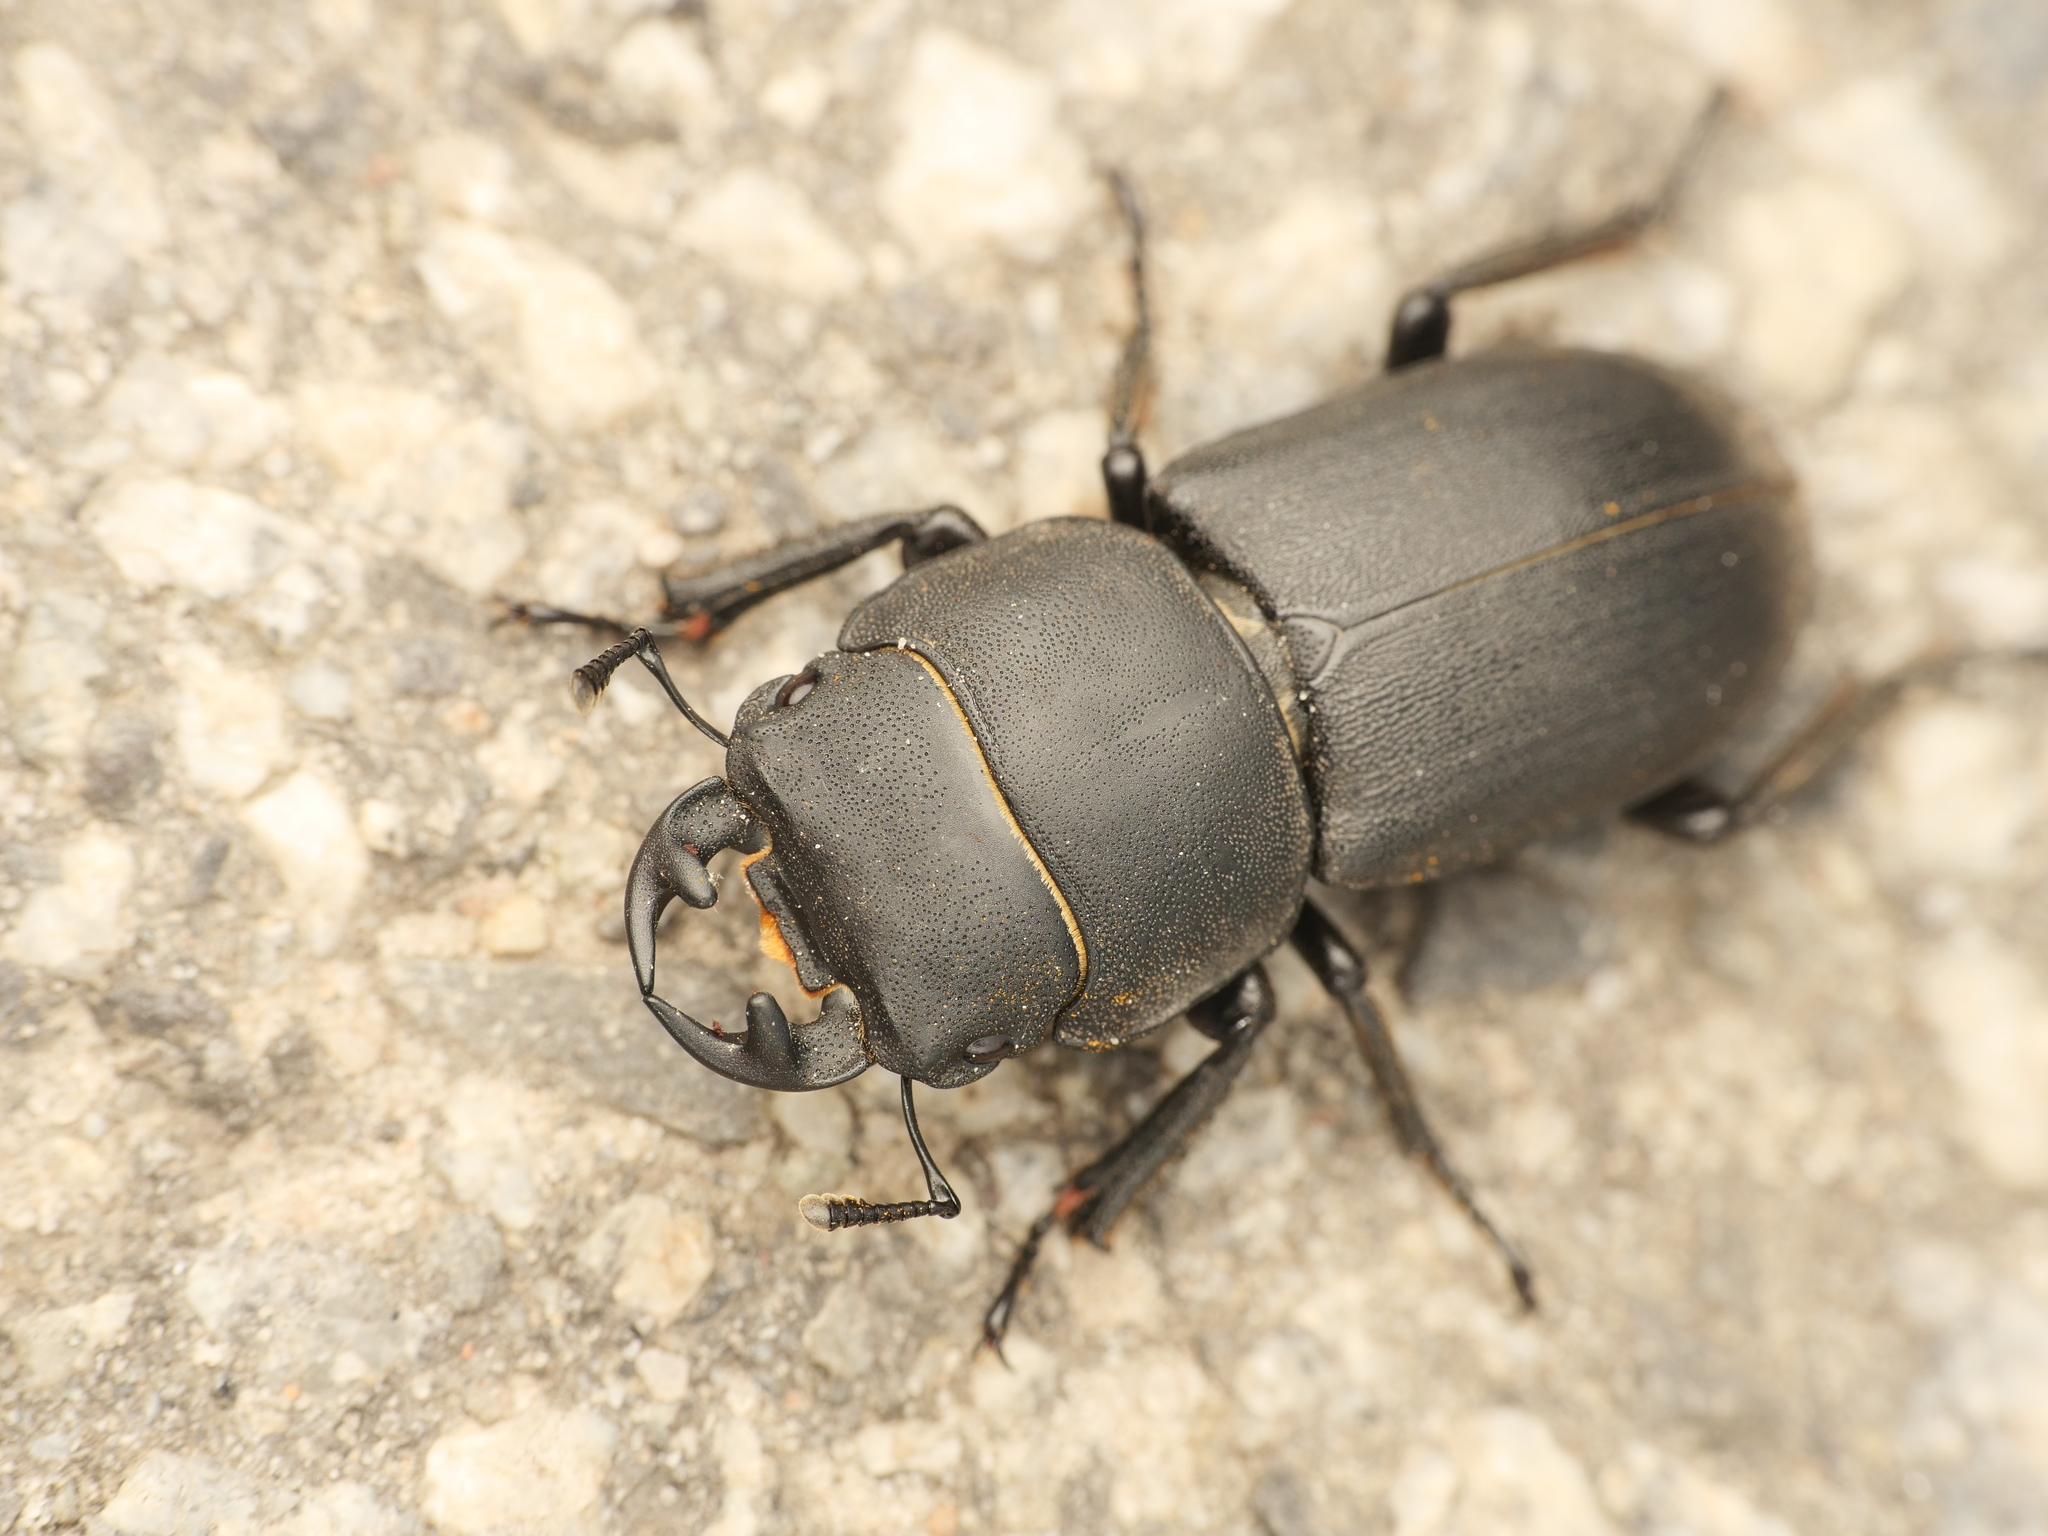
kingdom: Animalia
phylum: Arthropoda
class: Insecta
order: Coleoptera
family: Lucanidae
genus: Dorcus
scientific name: Dorcus parallelipipedus
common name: Lesser stag beetle
